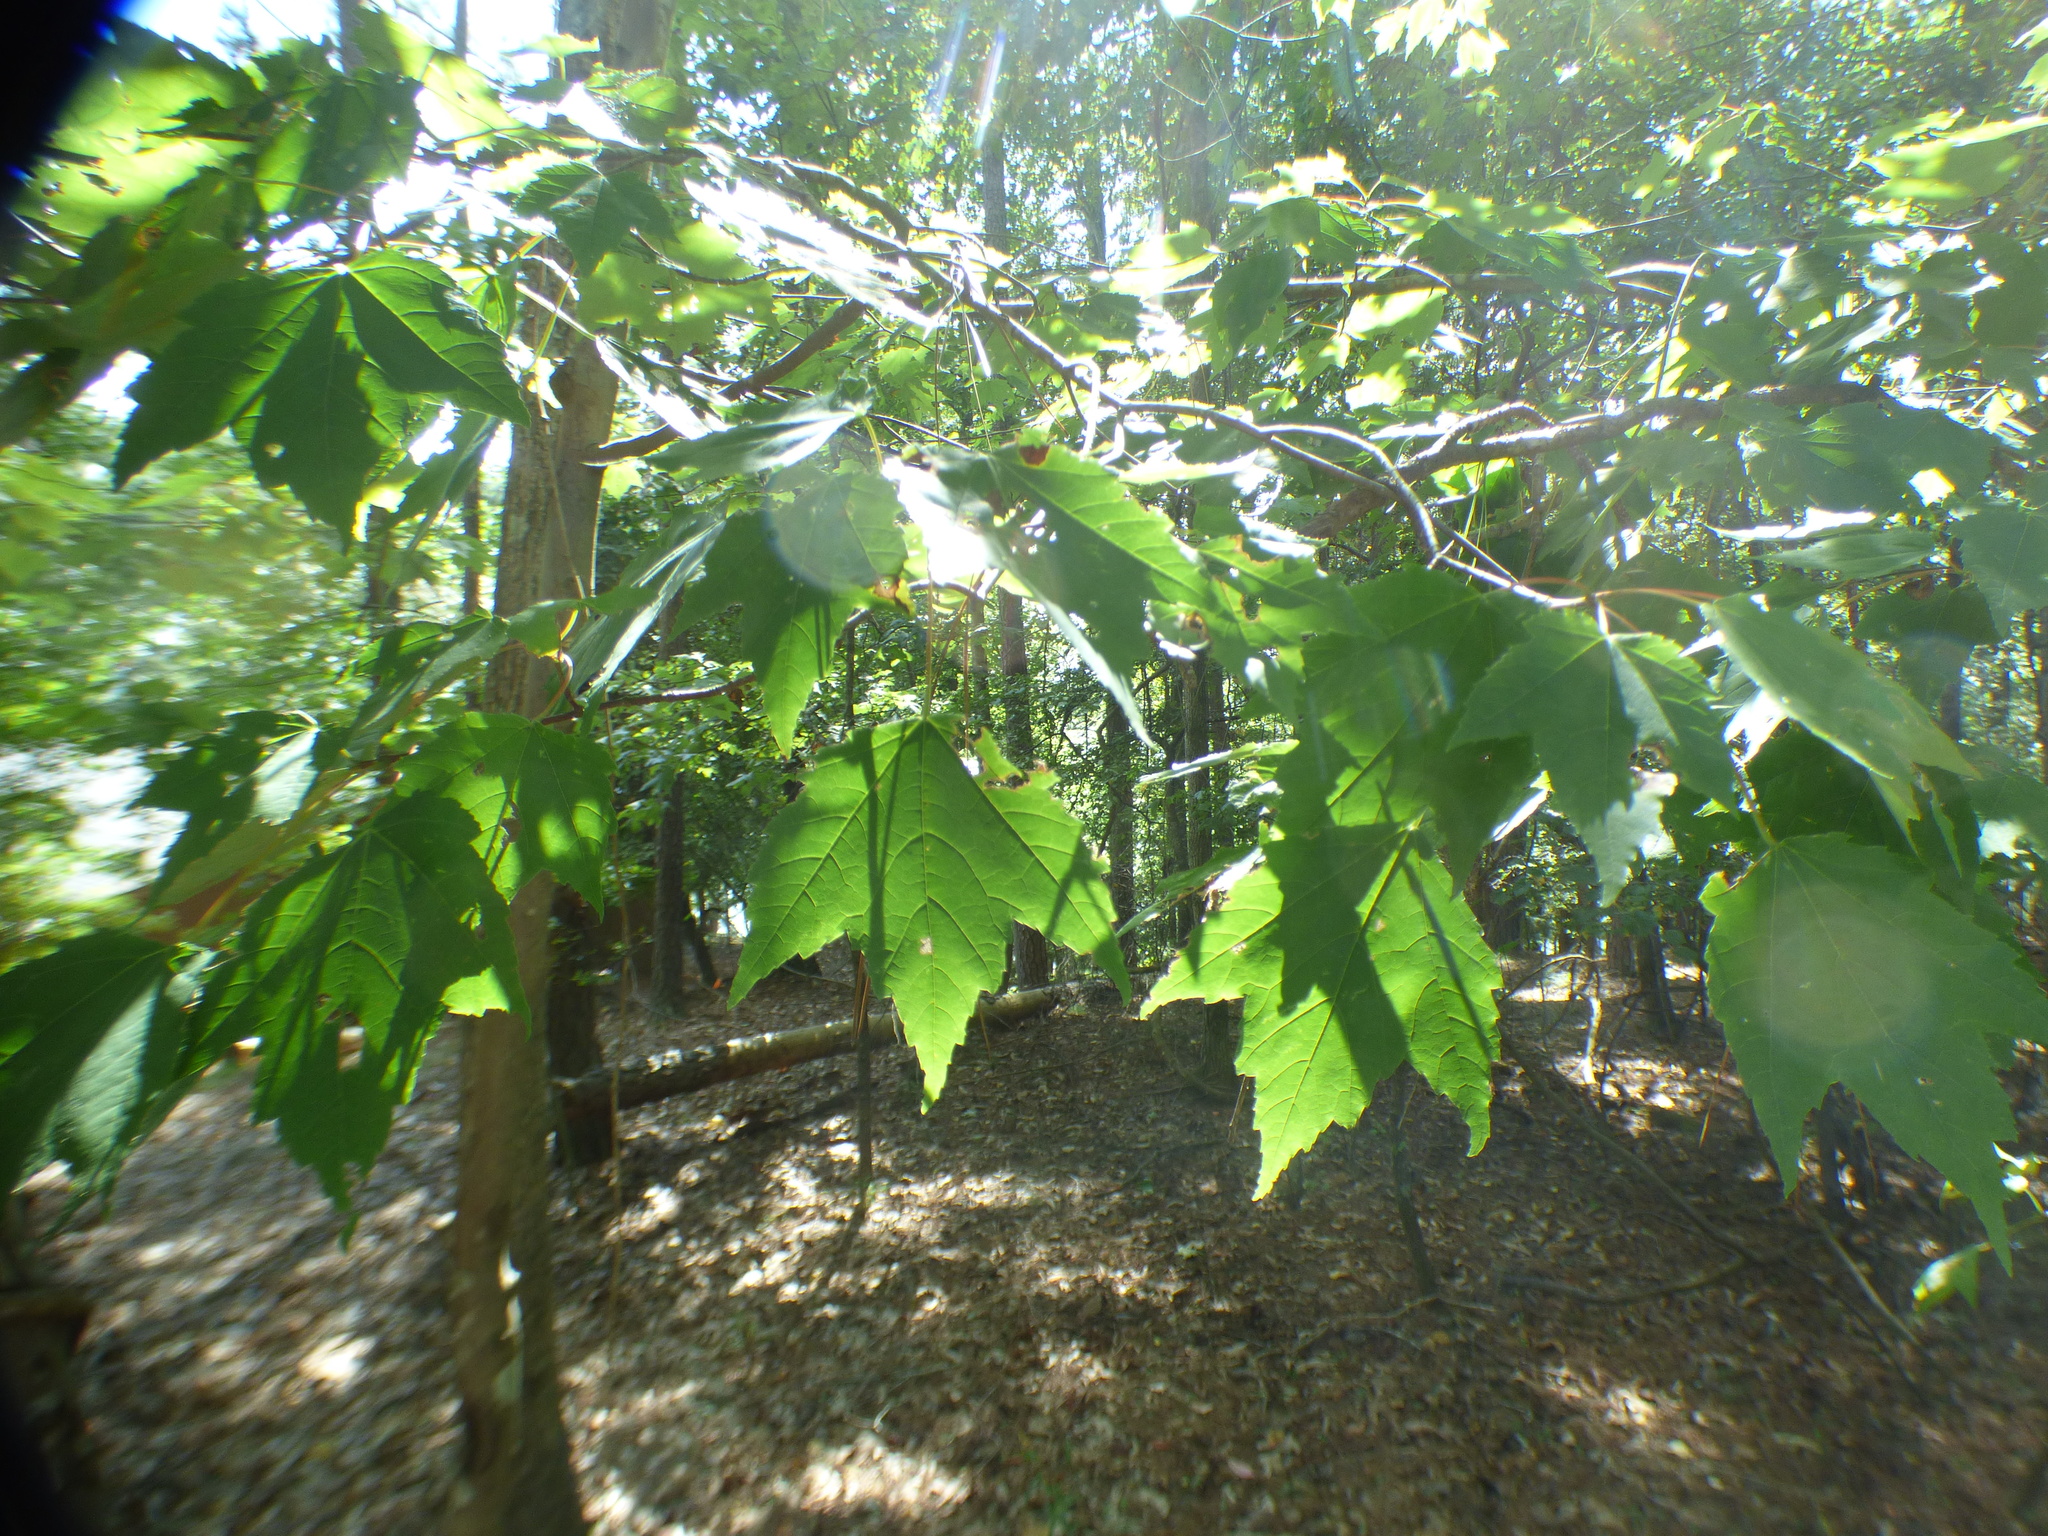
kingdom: Plantae
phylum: Tracheophyta
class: Magnoliopsida
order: Sapindales
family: Sapindaceae
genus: Acer
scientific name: Acer rubrum
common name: Red maple
